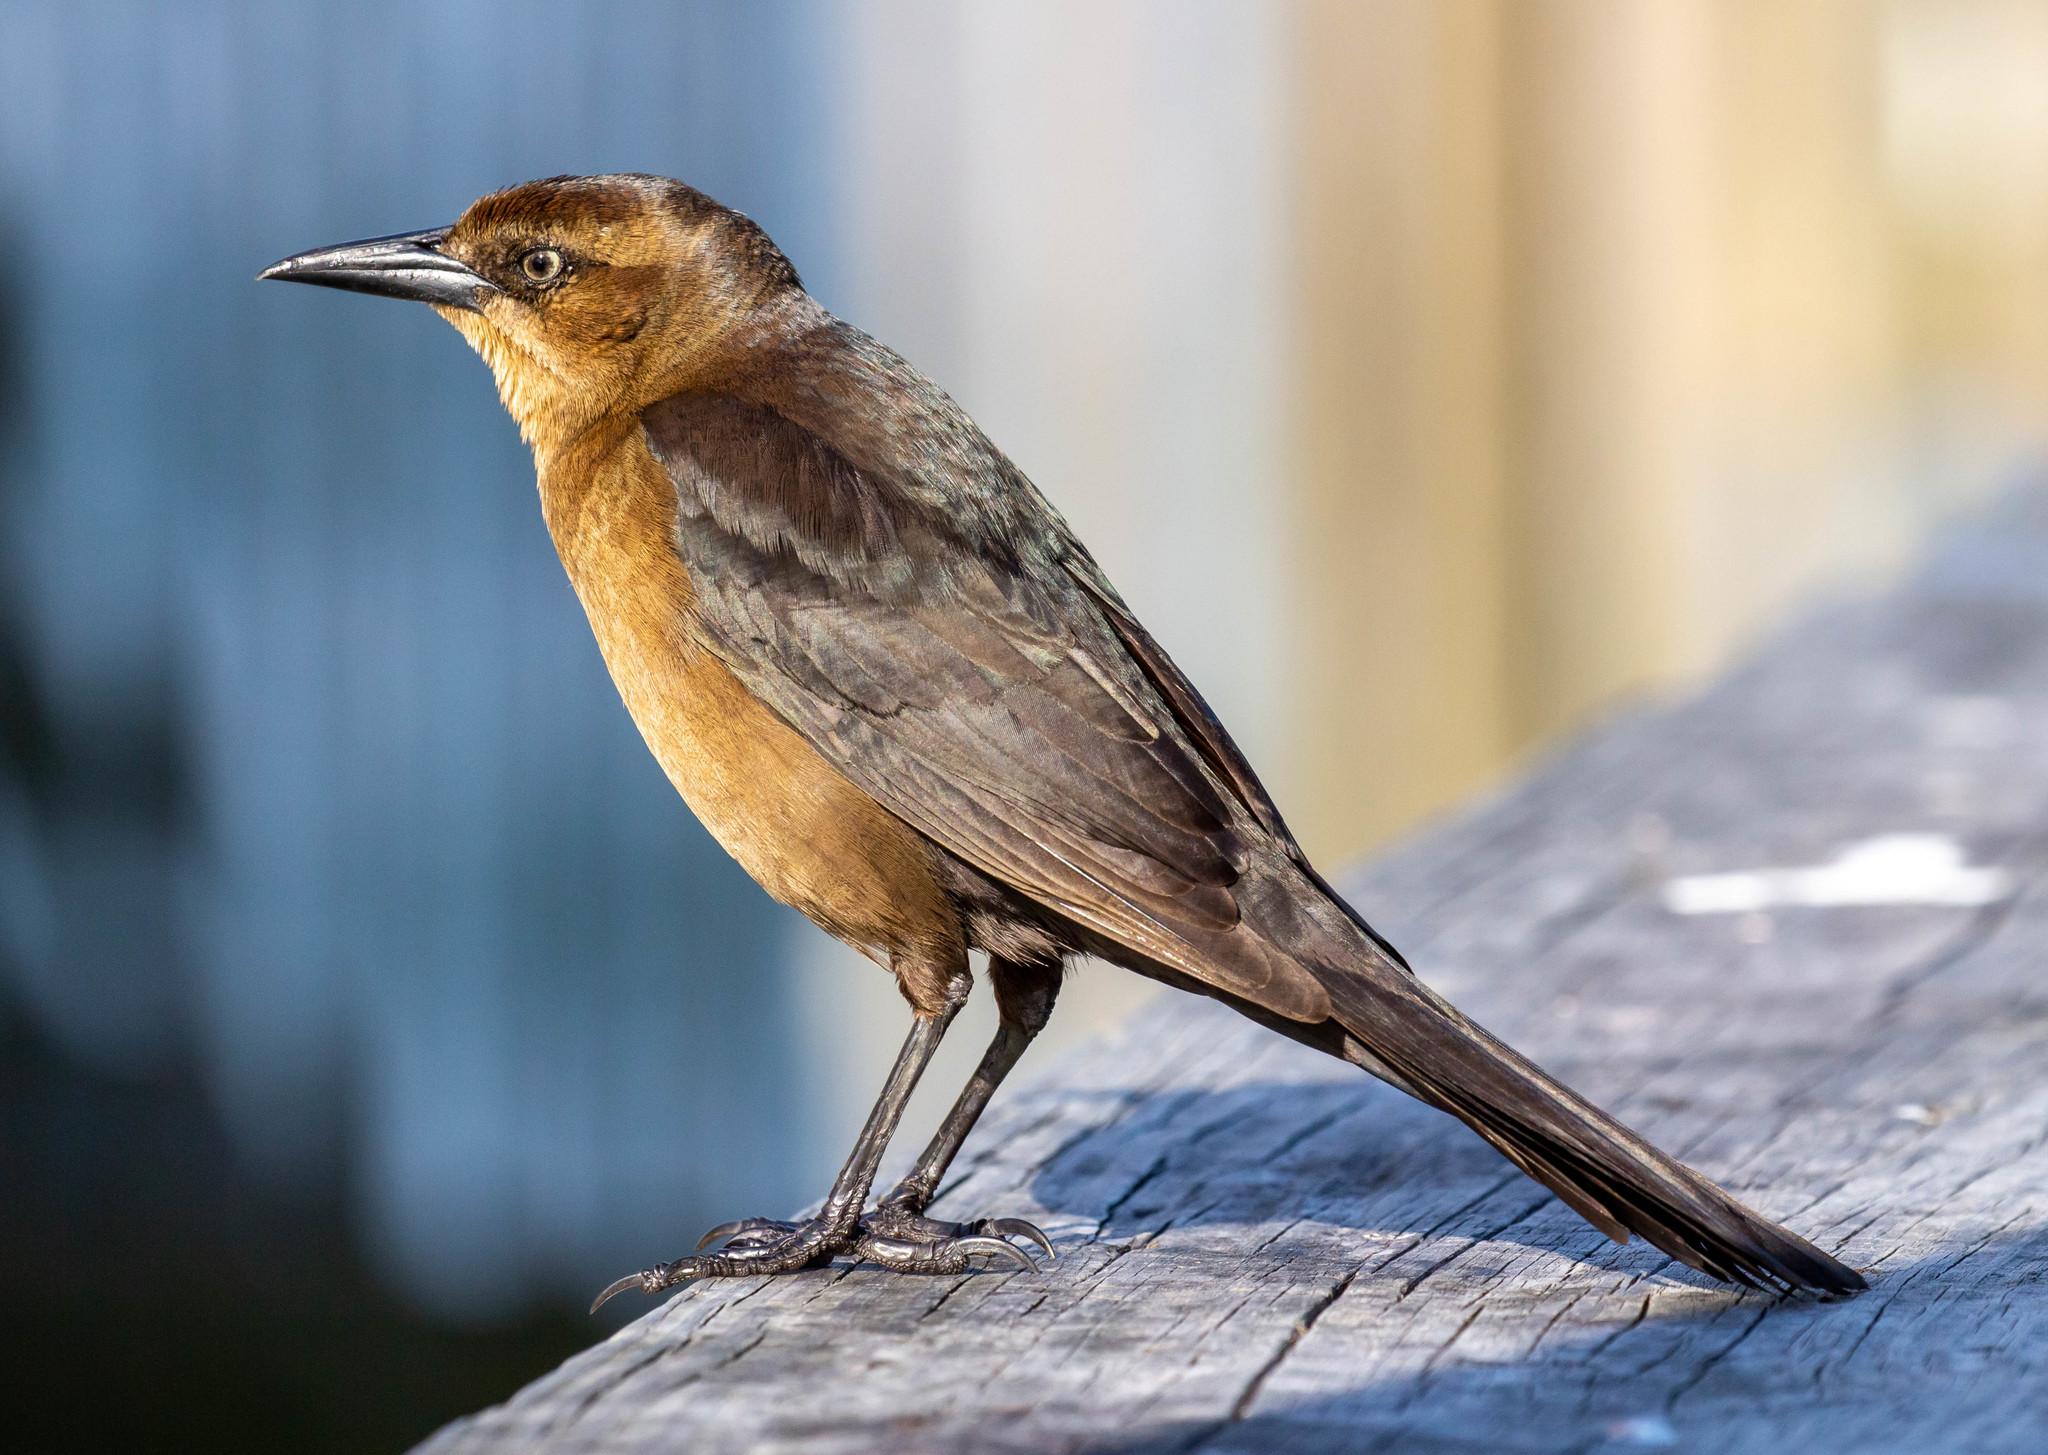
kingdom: Animalia
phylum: Chordata
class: Aves
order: Passeriformes
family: Icteridae
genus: Quiscalus
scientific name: Quiscalus major
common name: Boat-tailed grackle
